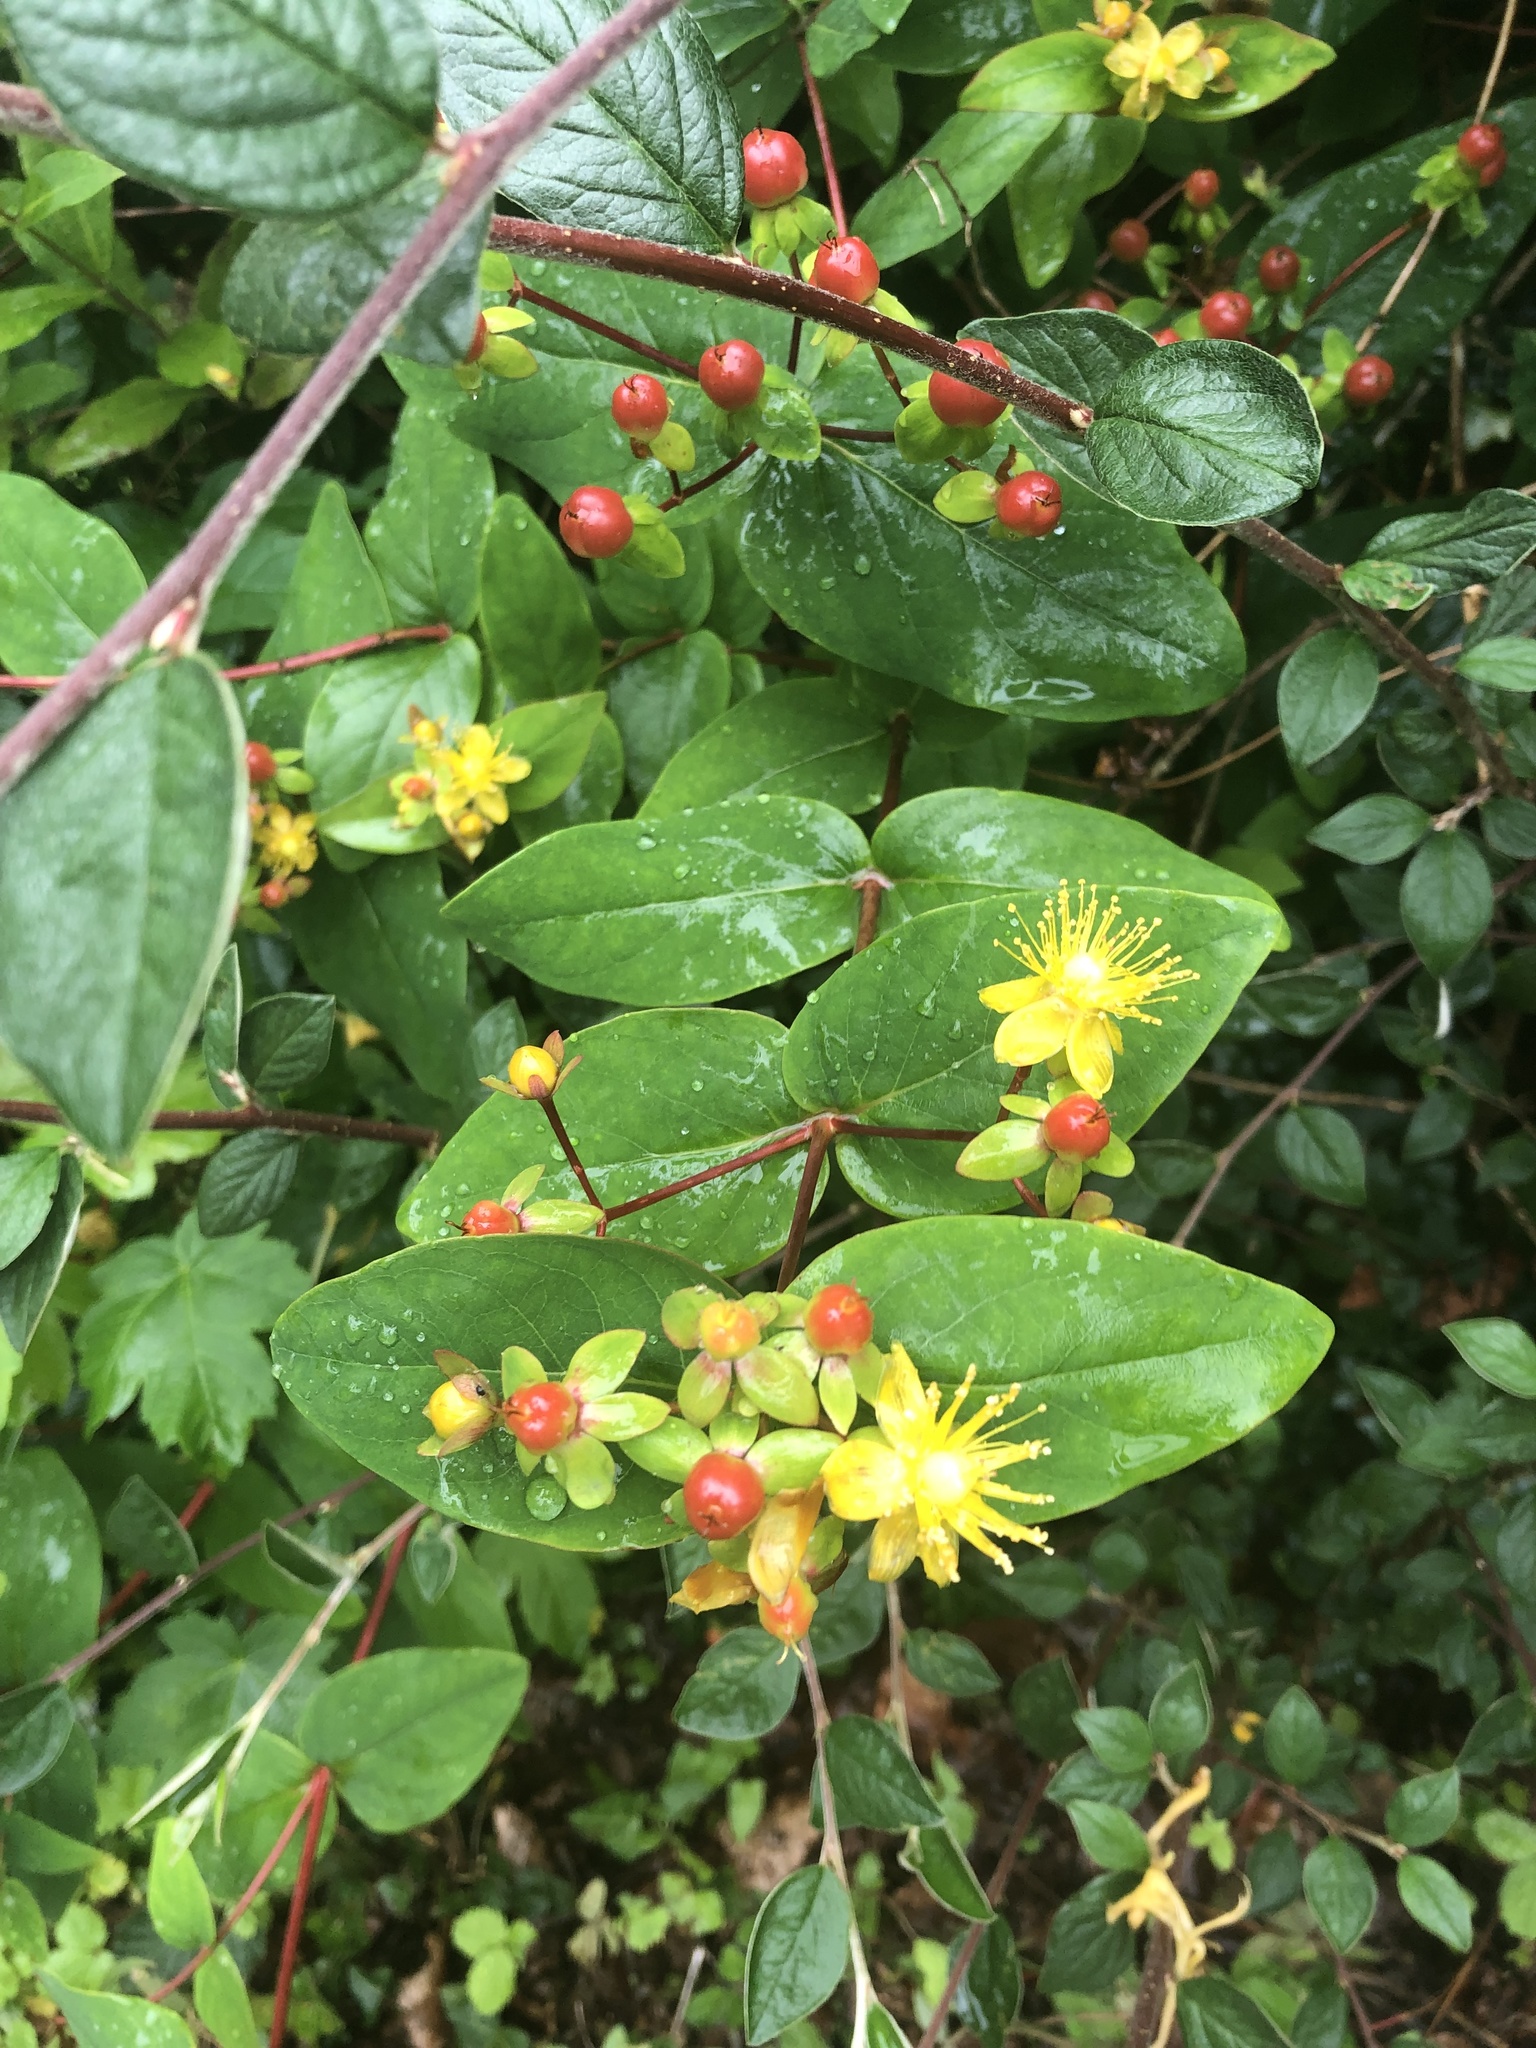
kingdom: Plantae
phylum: Tracheophyta
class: Magnoliopsida
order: Malpighiales
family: Hypericaceae
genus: Hypericum
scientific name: Hypericum androsaemum
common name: Sweet-amber
